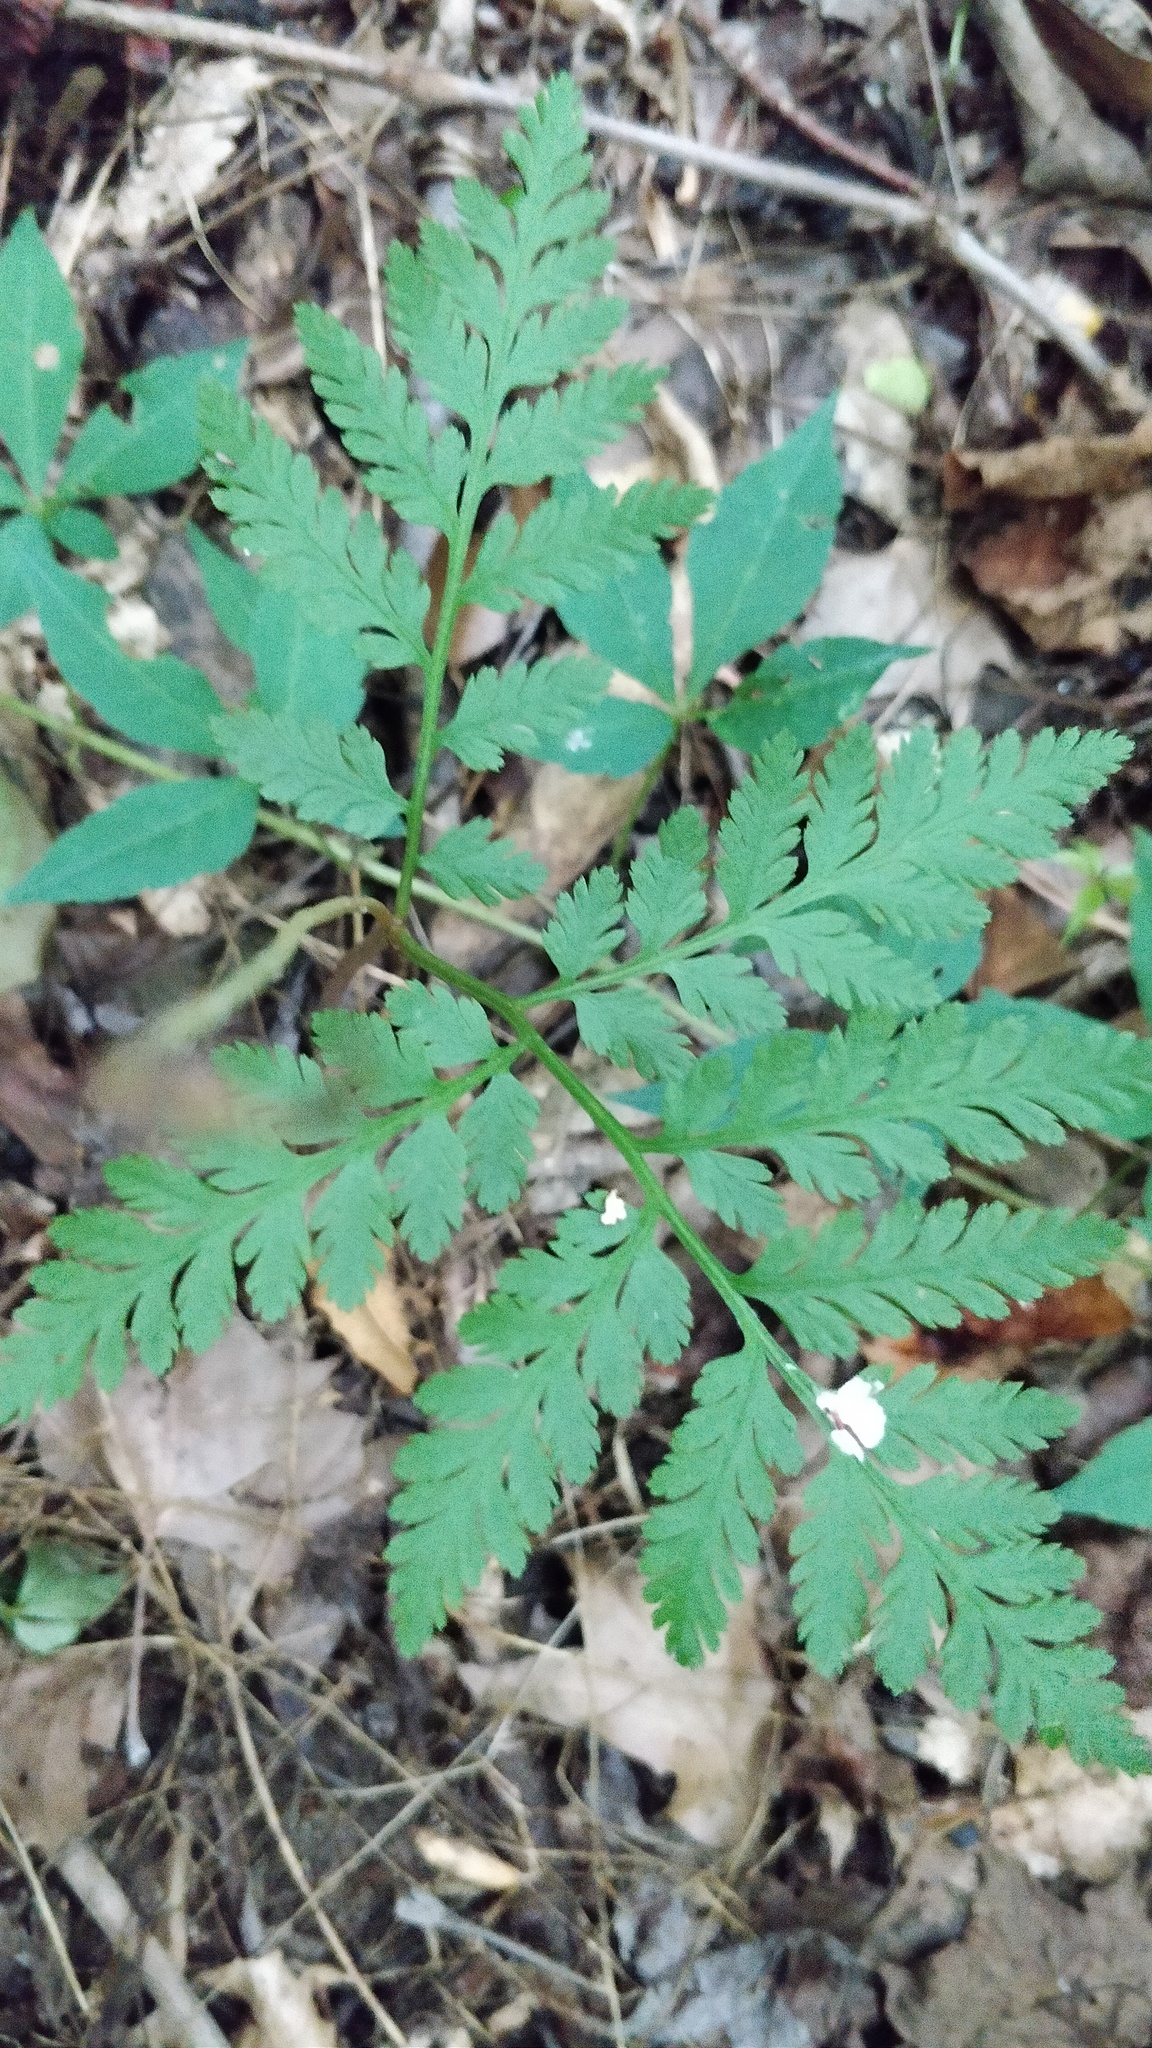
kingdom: Plantae
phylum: Tracheophyta
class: Polypodiopsida
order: Ophioglossales
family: Ophioglossaceae
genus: Botrypus
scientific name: Botrypus virginianus
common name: Common grapefern
